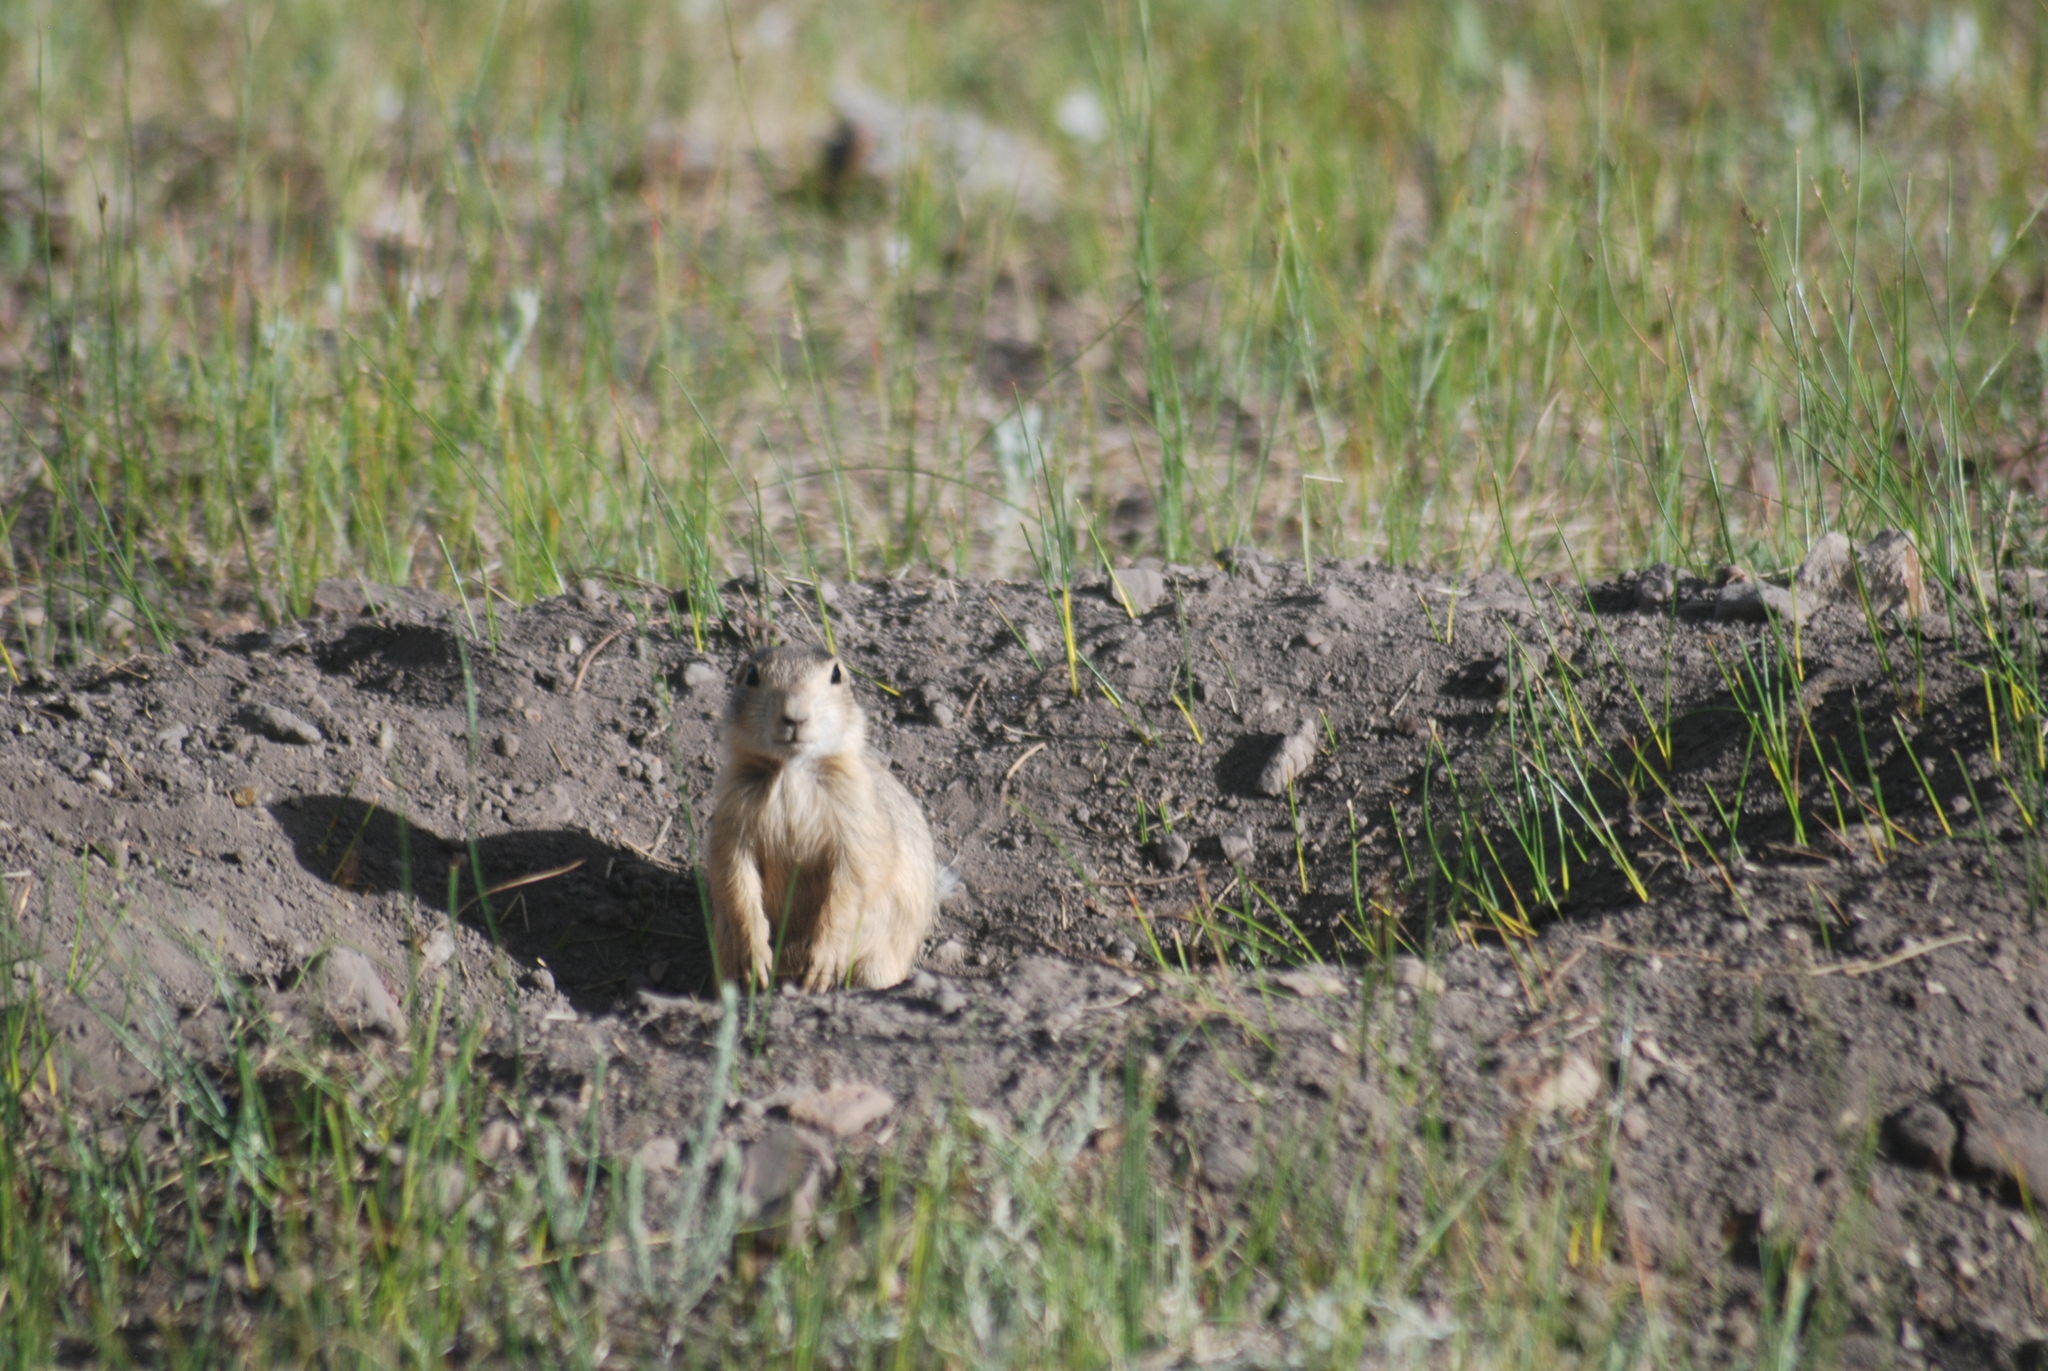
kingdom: Animalia
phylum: Chordata
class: Mammalia
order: Rodentia
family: Sciuridae
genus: Cynomys
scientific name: Cynomys gunnisoni
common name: Gunnison's prairie dog
